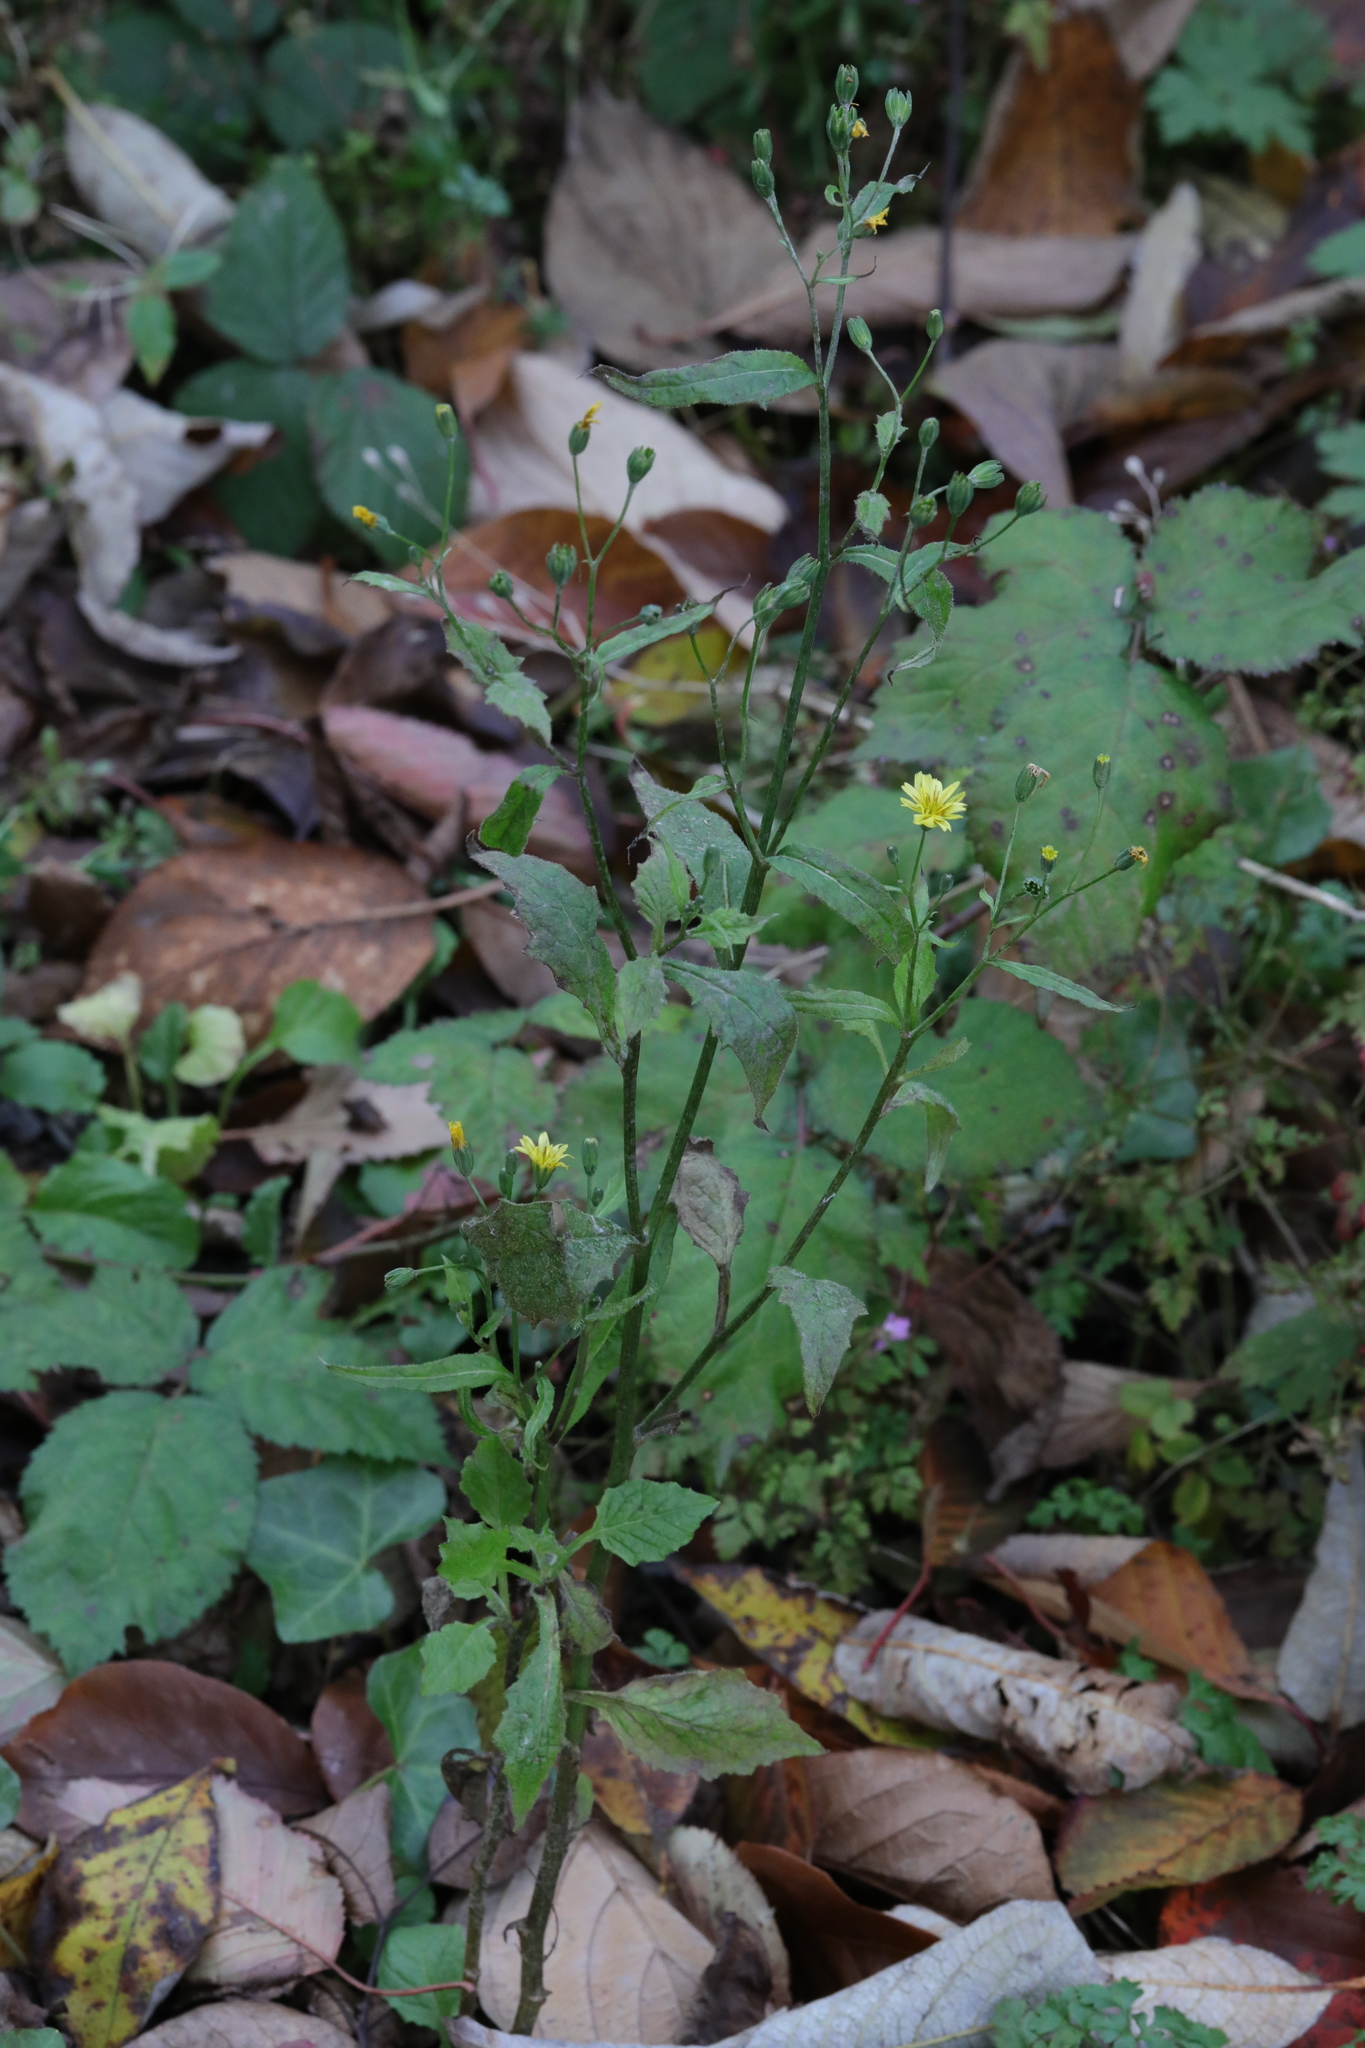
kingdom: Plantae
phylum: Tracheophyta
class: Magnoliopsida
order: Asterales
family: Asteraceae
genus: Lapsana
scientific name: Lapsana communis
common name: Nipplewort
